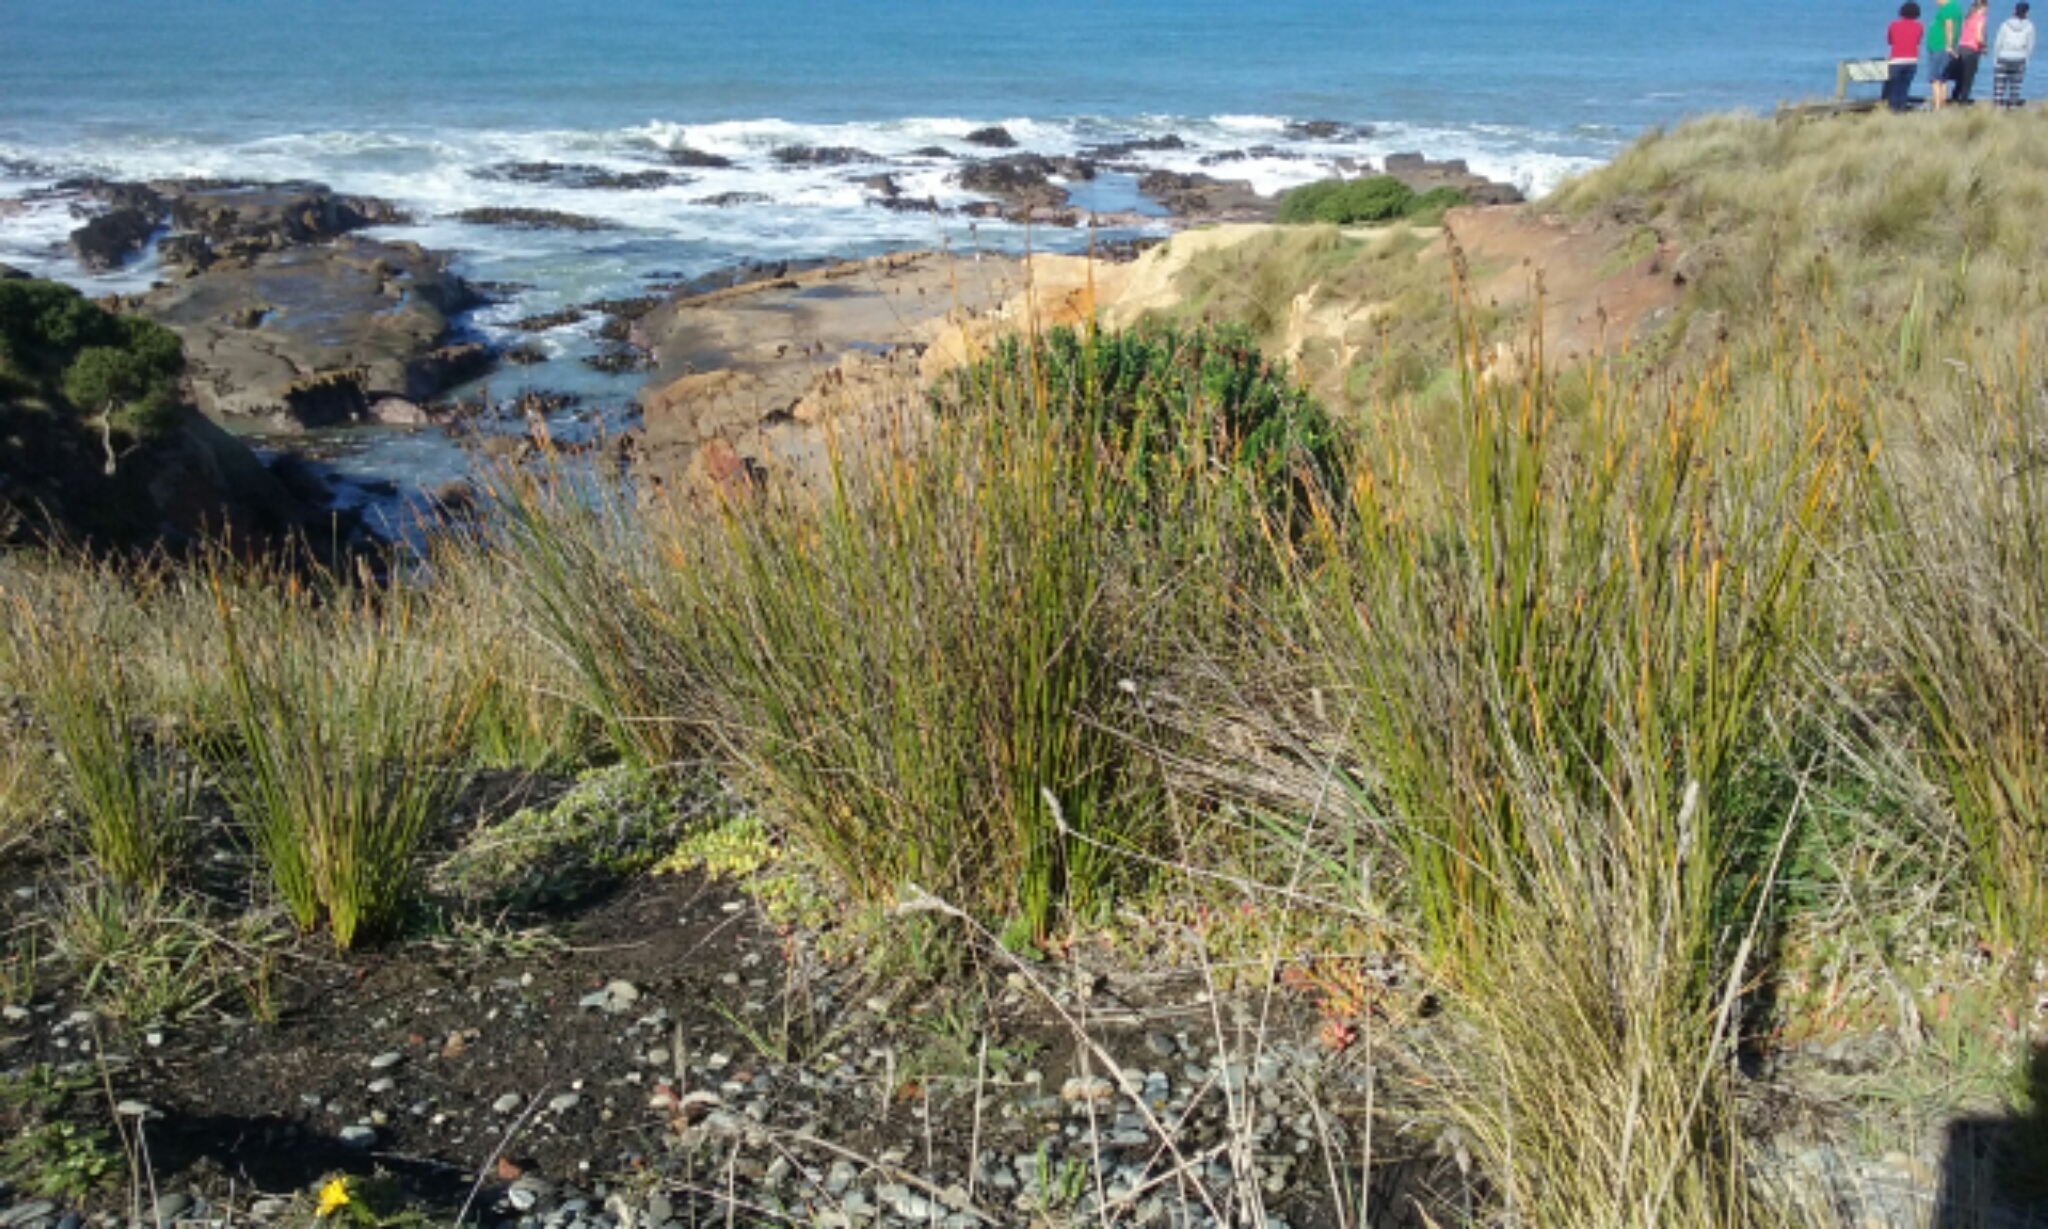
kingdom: Plantae
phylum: Tracheophyta
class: Liliopsida
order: Poales
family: Cyperaceae
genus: Ficinia
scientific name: Ficinia nodosa
